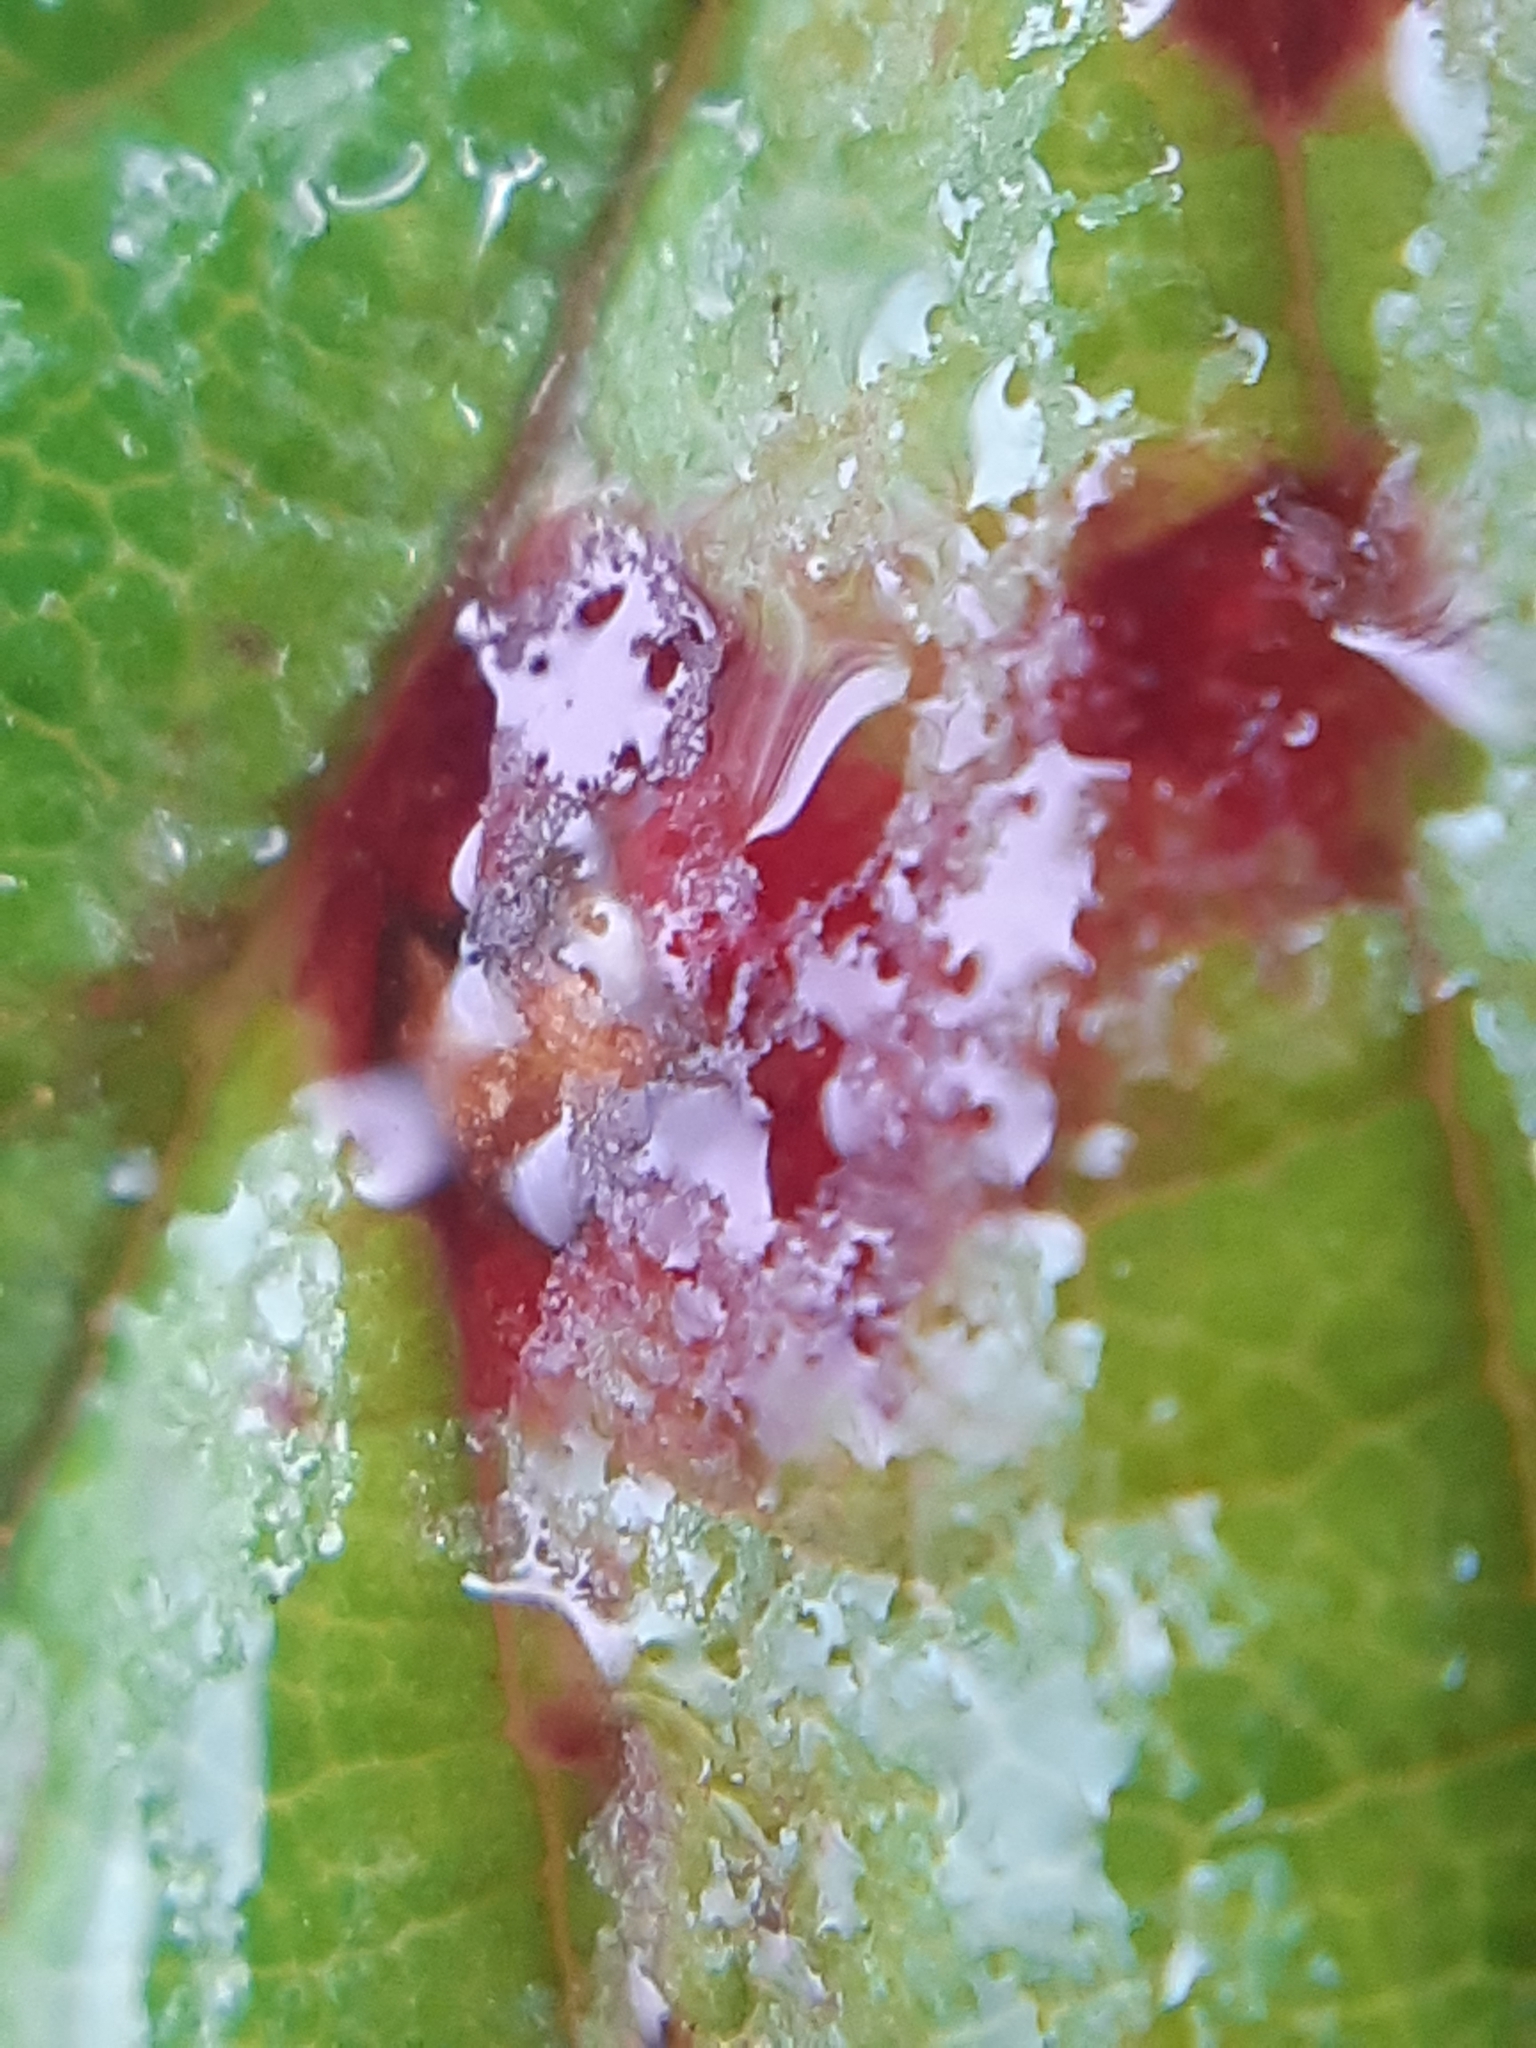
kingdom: Fungi
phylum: Basidiomycota
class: Pucciniomycetes
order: Pucciniales
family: Phragmidiaceae
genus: Phragmidium
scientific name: Phragmidium violaceum
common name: Violet bramble rust
